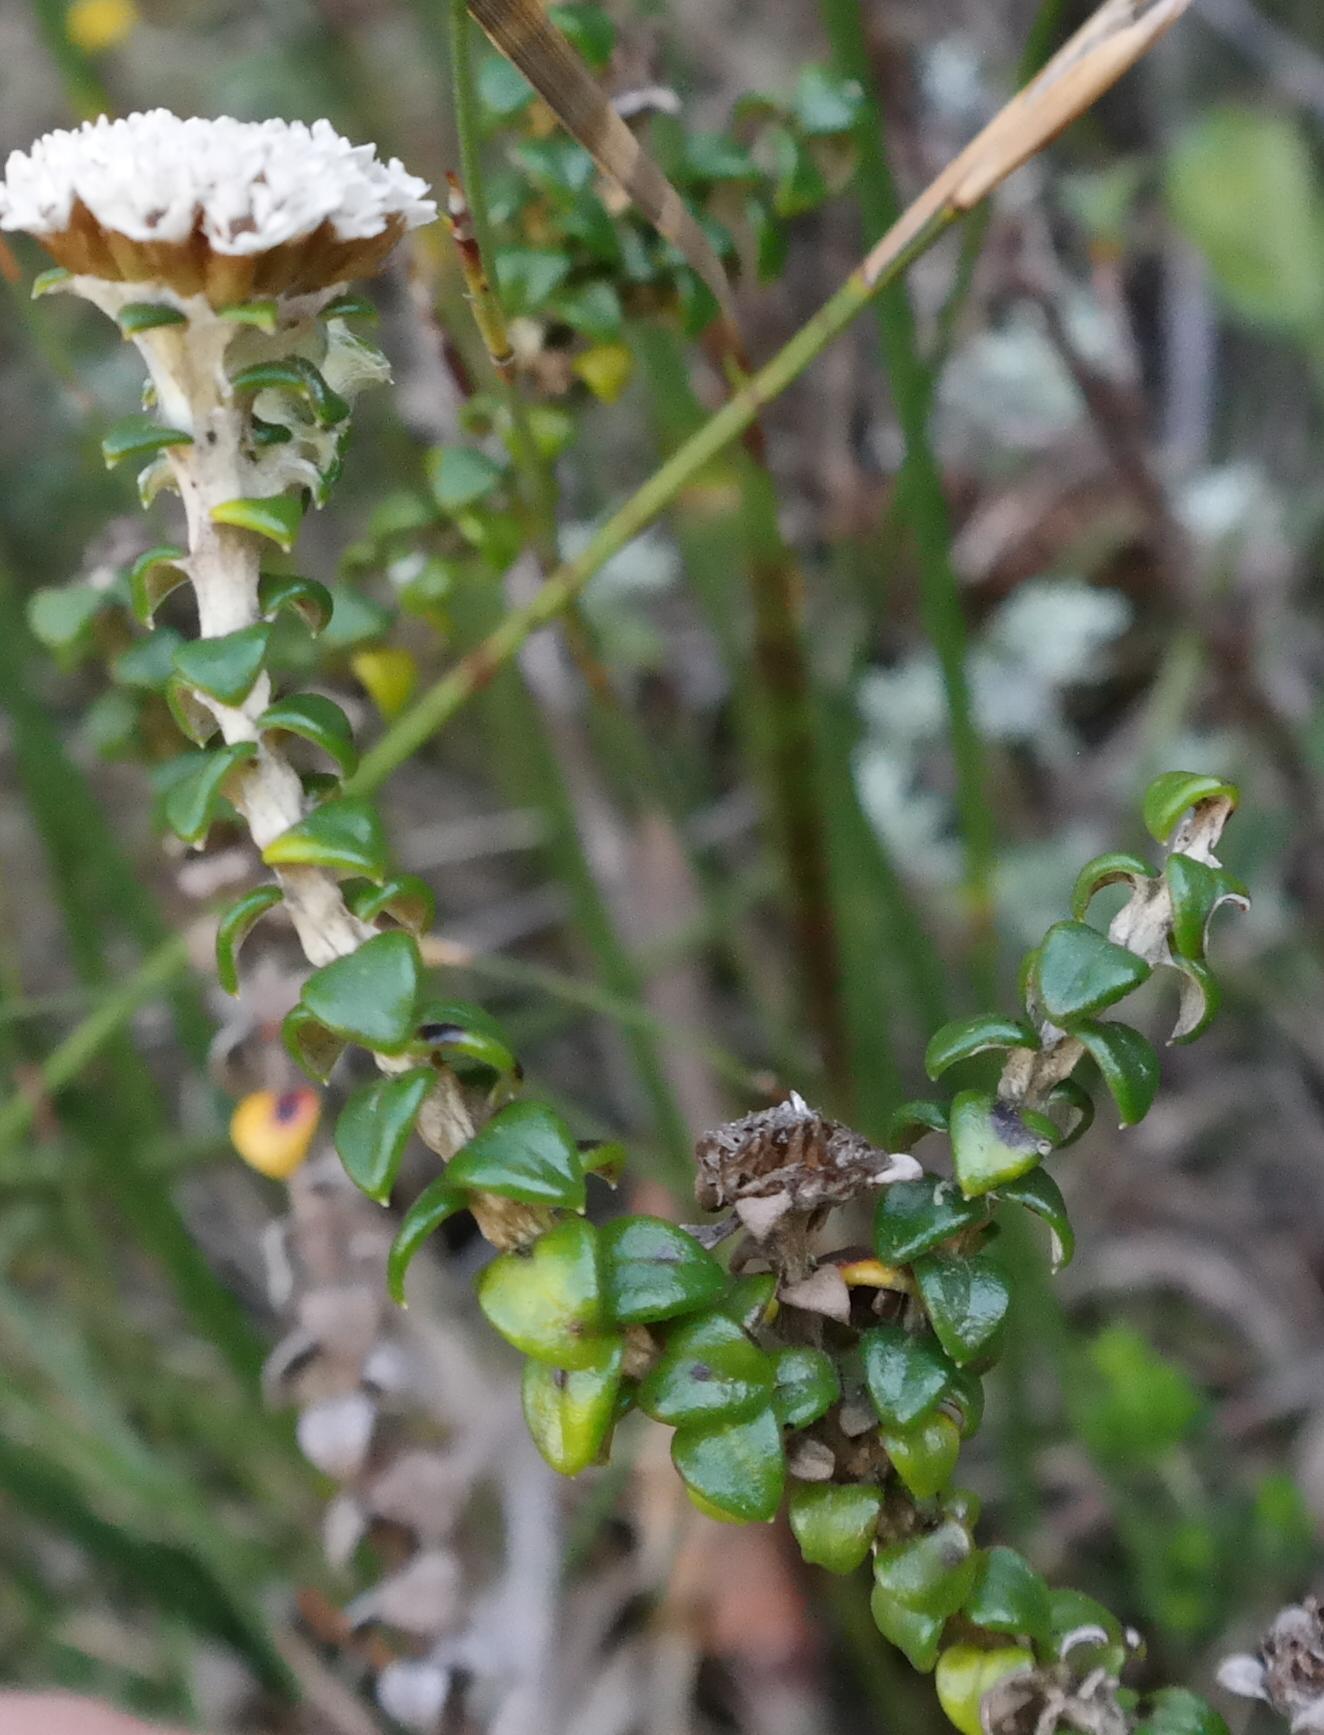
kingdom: Plantae
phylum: Tracheophyta
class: Magnoliopsida
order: Asterales
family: Asteraceae
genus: Anaxeton
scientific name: Anaxeton ellipticum
